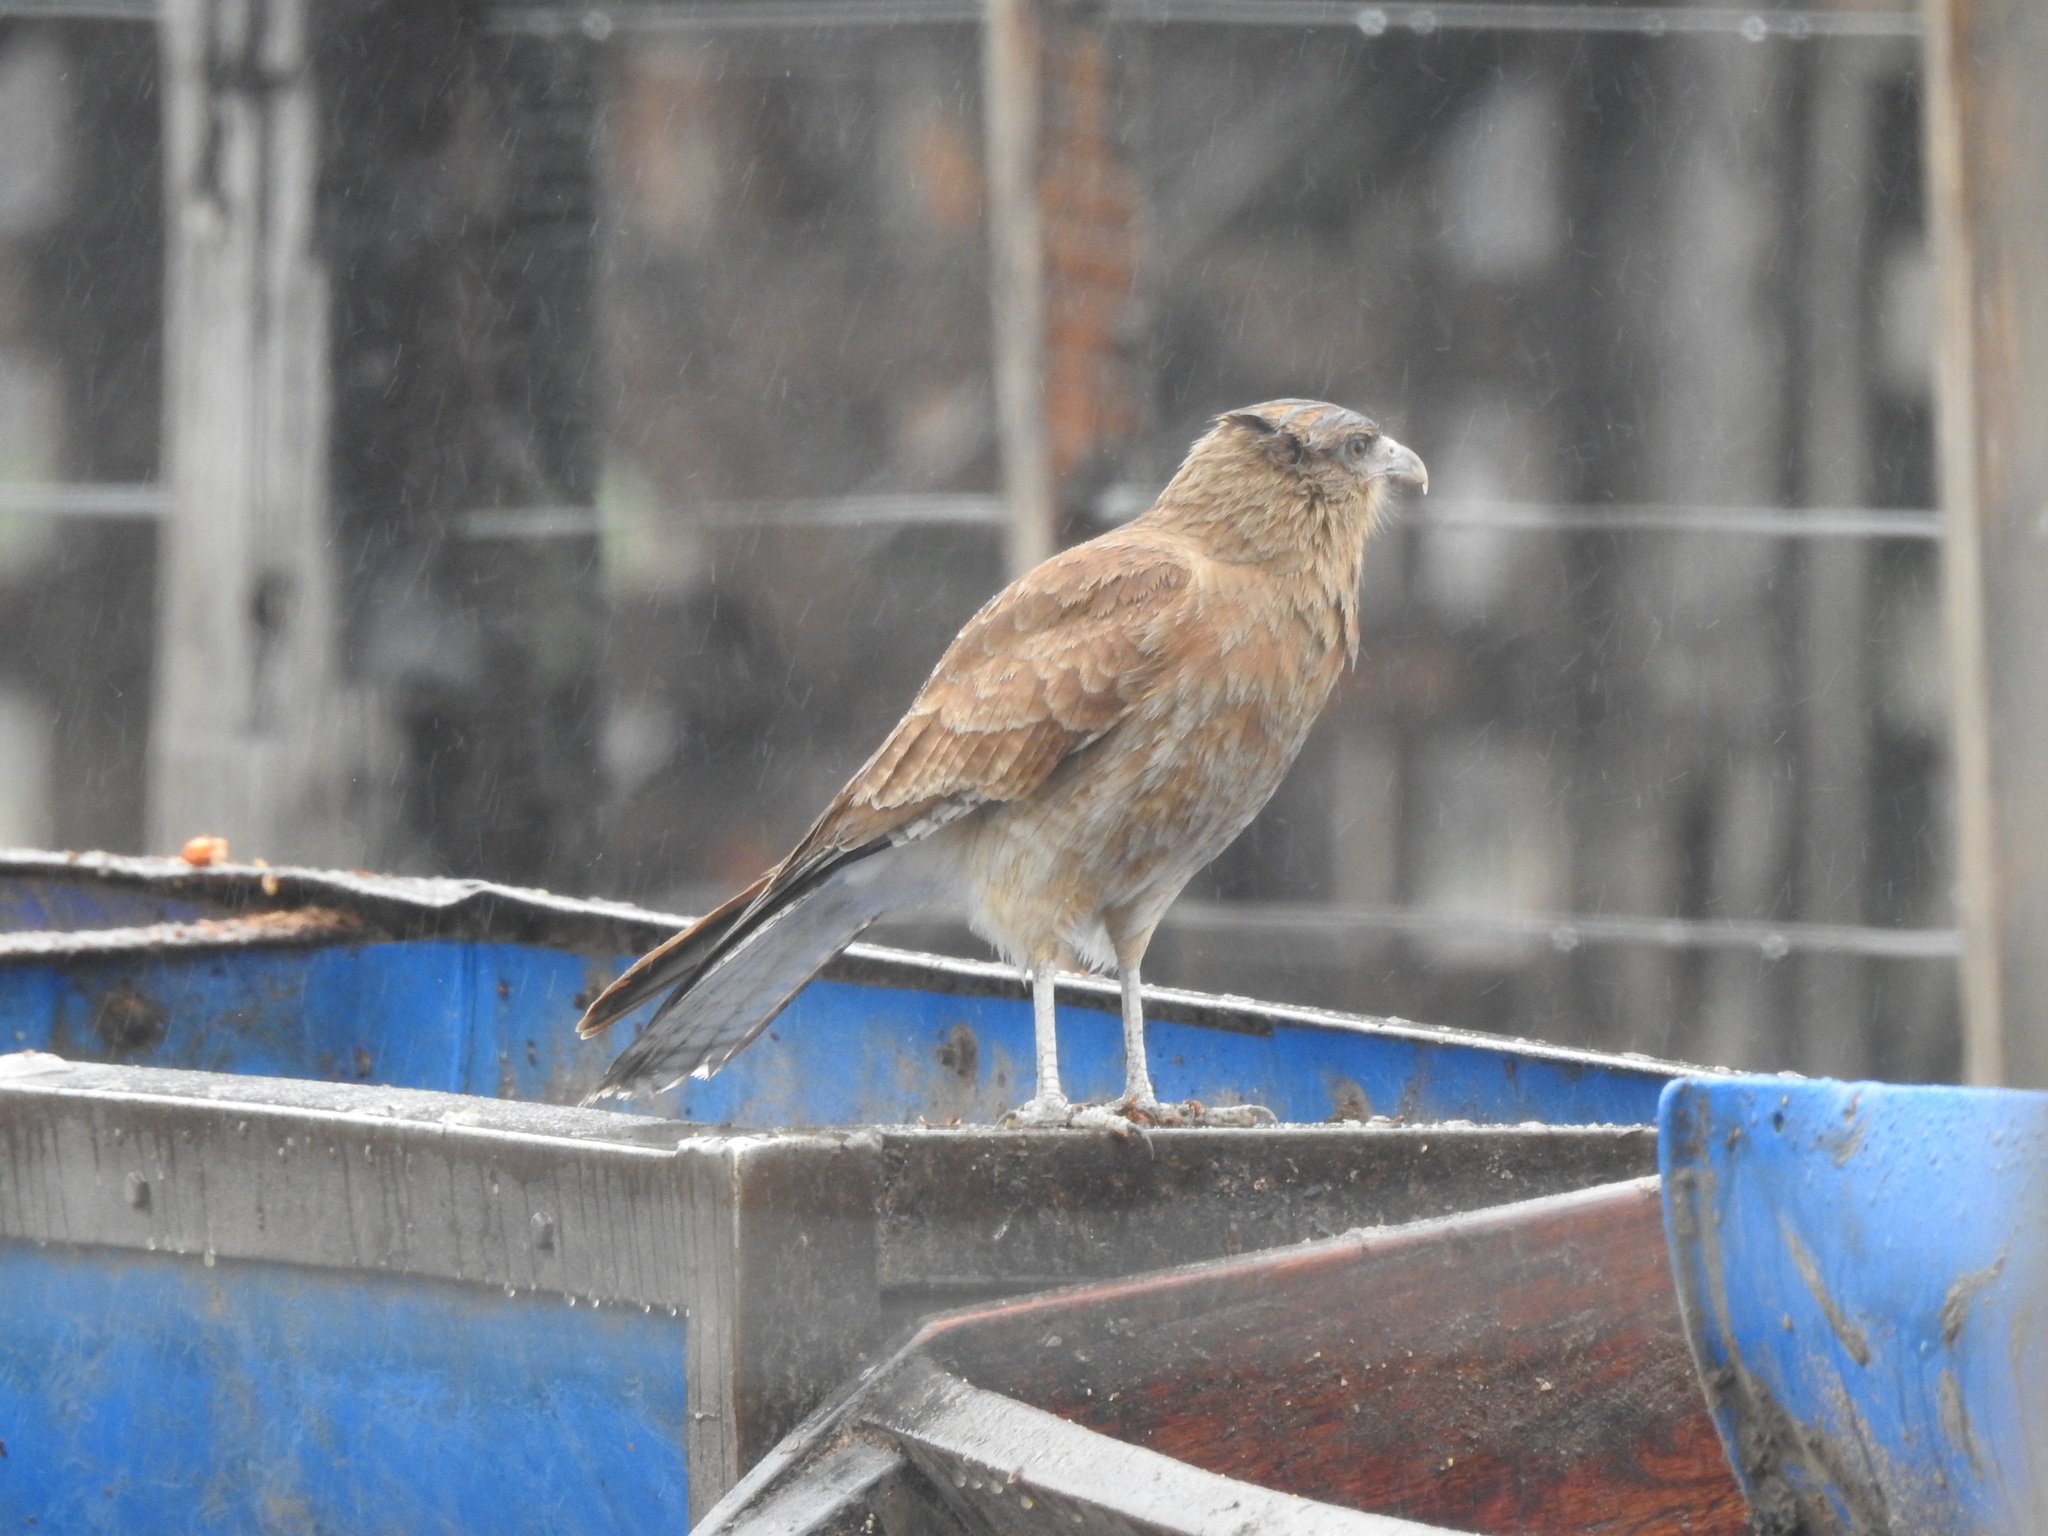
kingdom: Animalia
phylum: Chordata
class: Aves
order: Falconiformes
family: Falconidae
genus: Daptrius
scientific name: Daptrius
